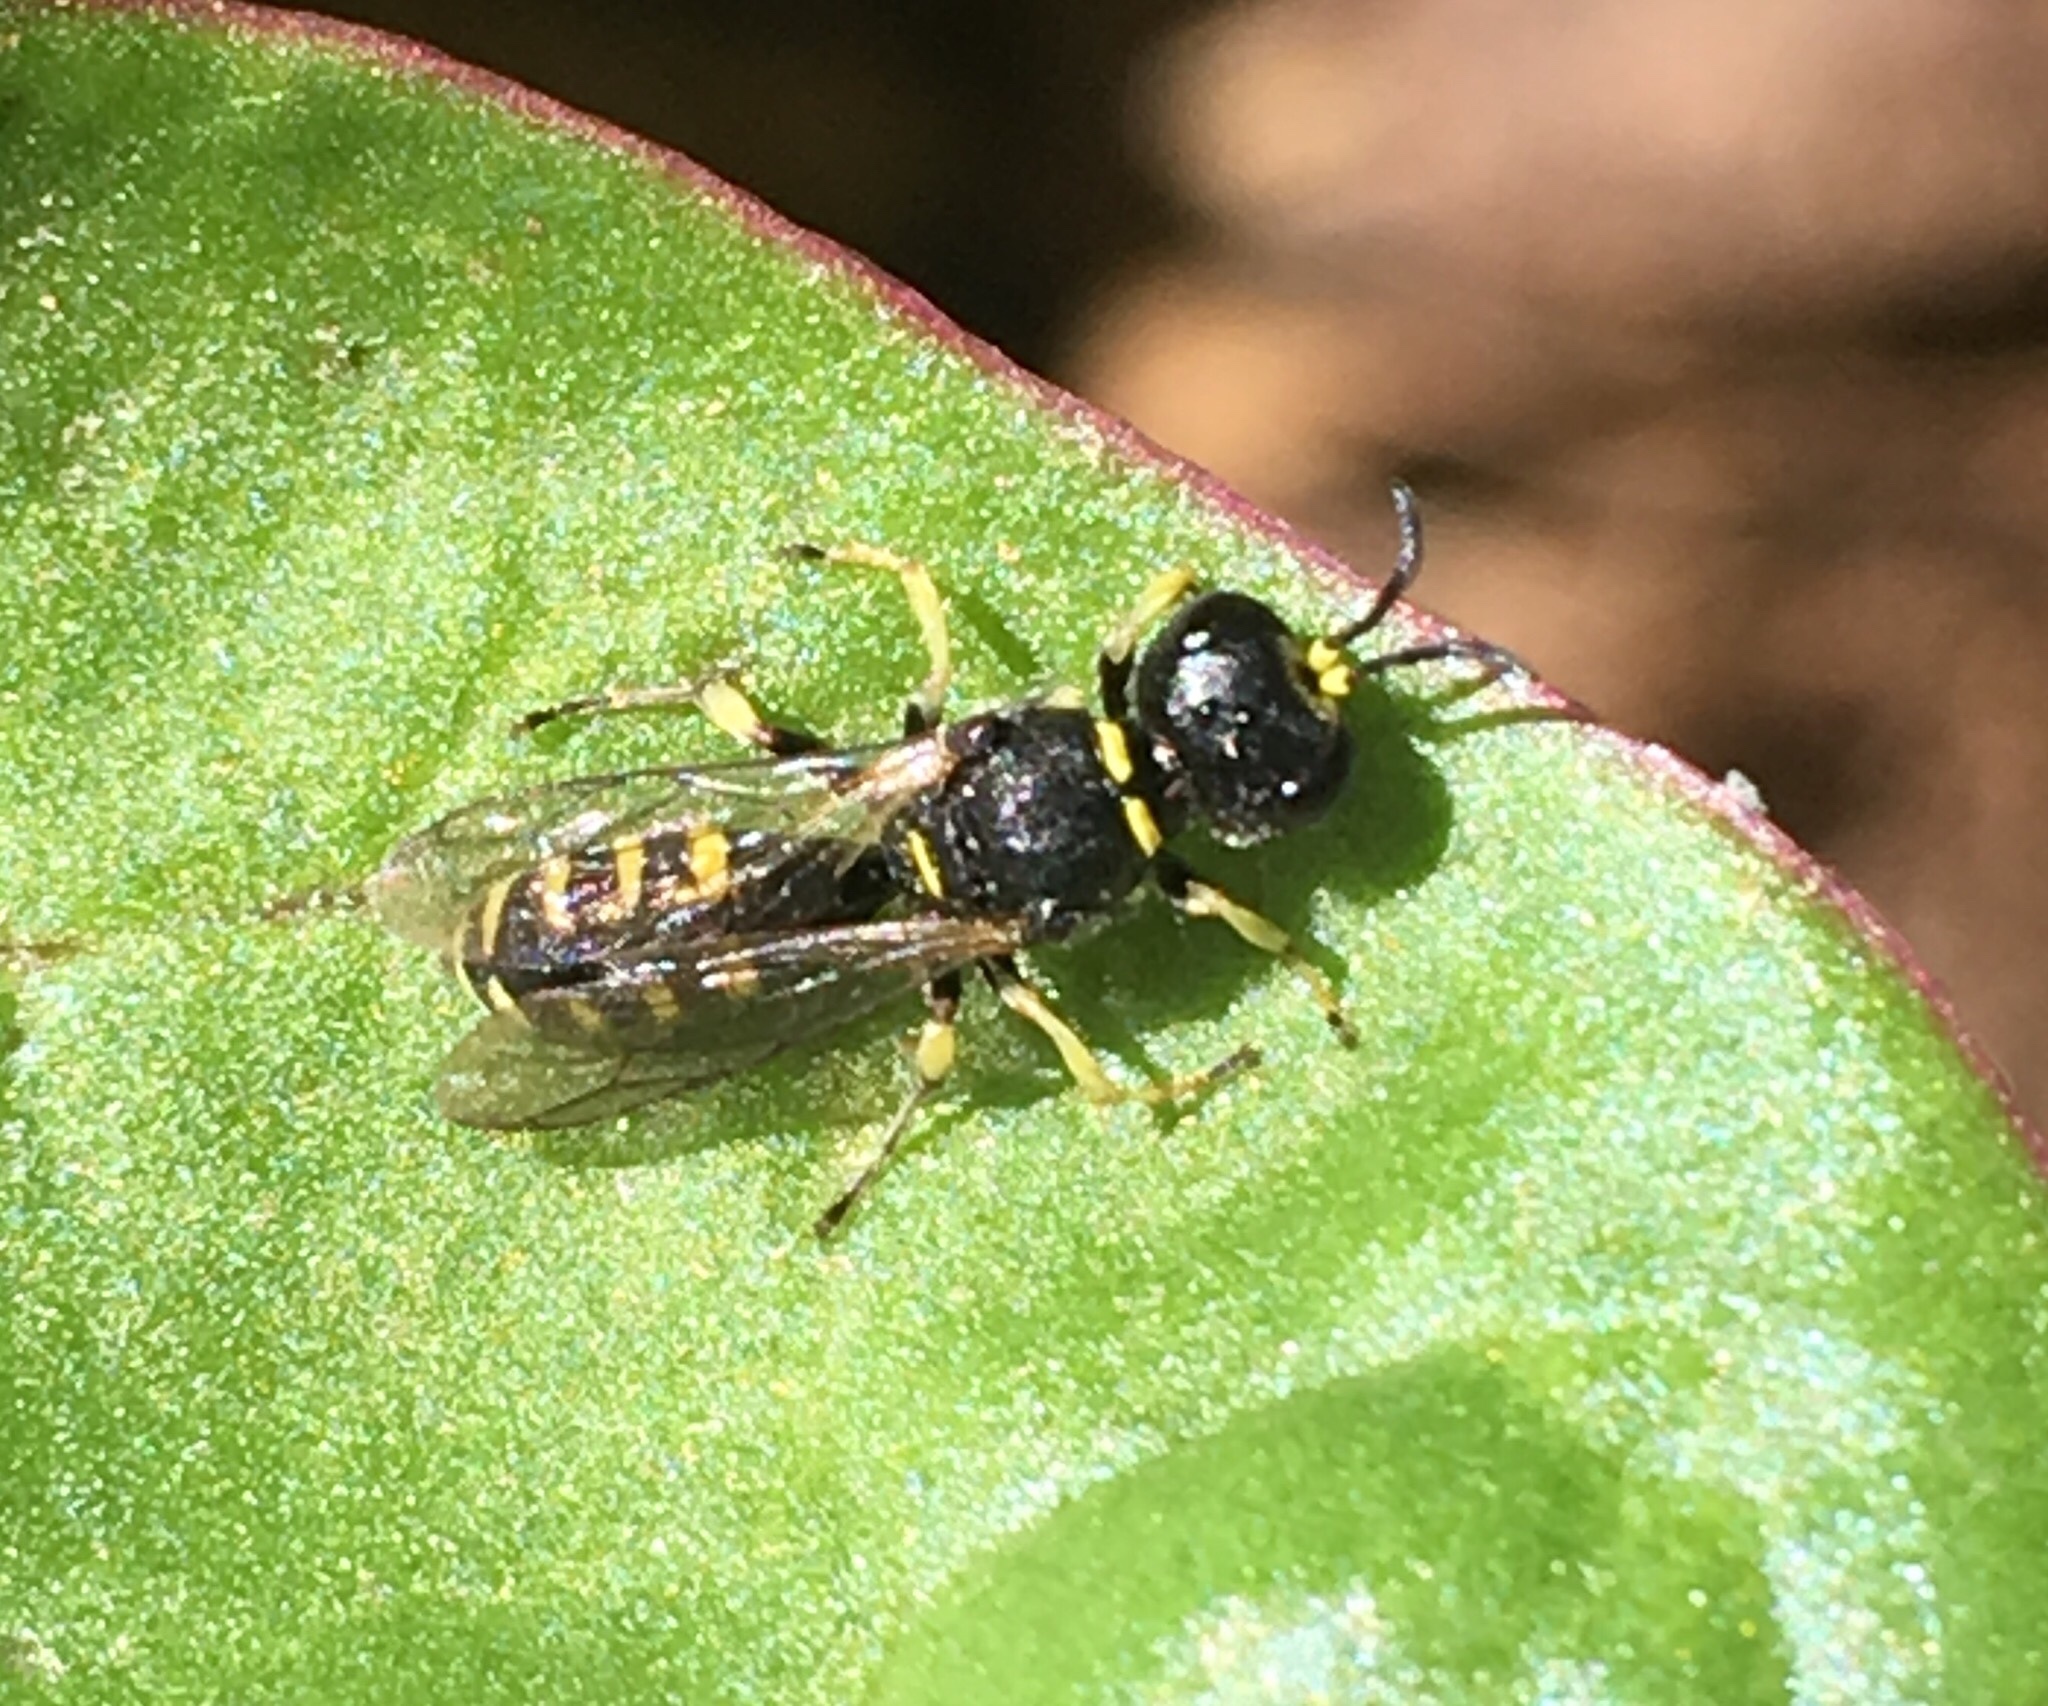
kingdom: Animalia
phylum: Arthropoda
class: Insecta
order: Hymenoptera
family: Crabronidae
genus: Ectemnius
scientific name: Ectemnius lapidarius
